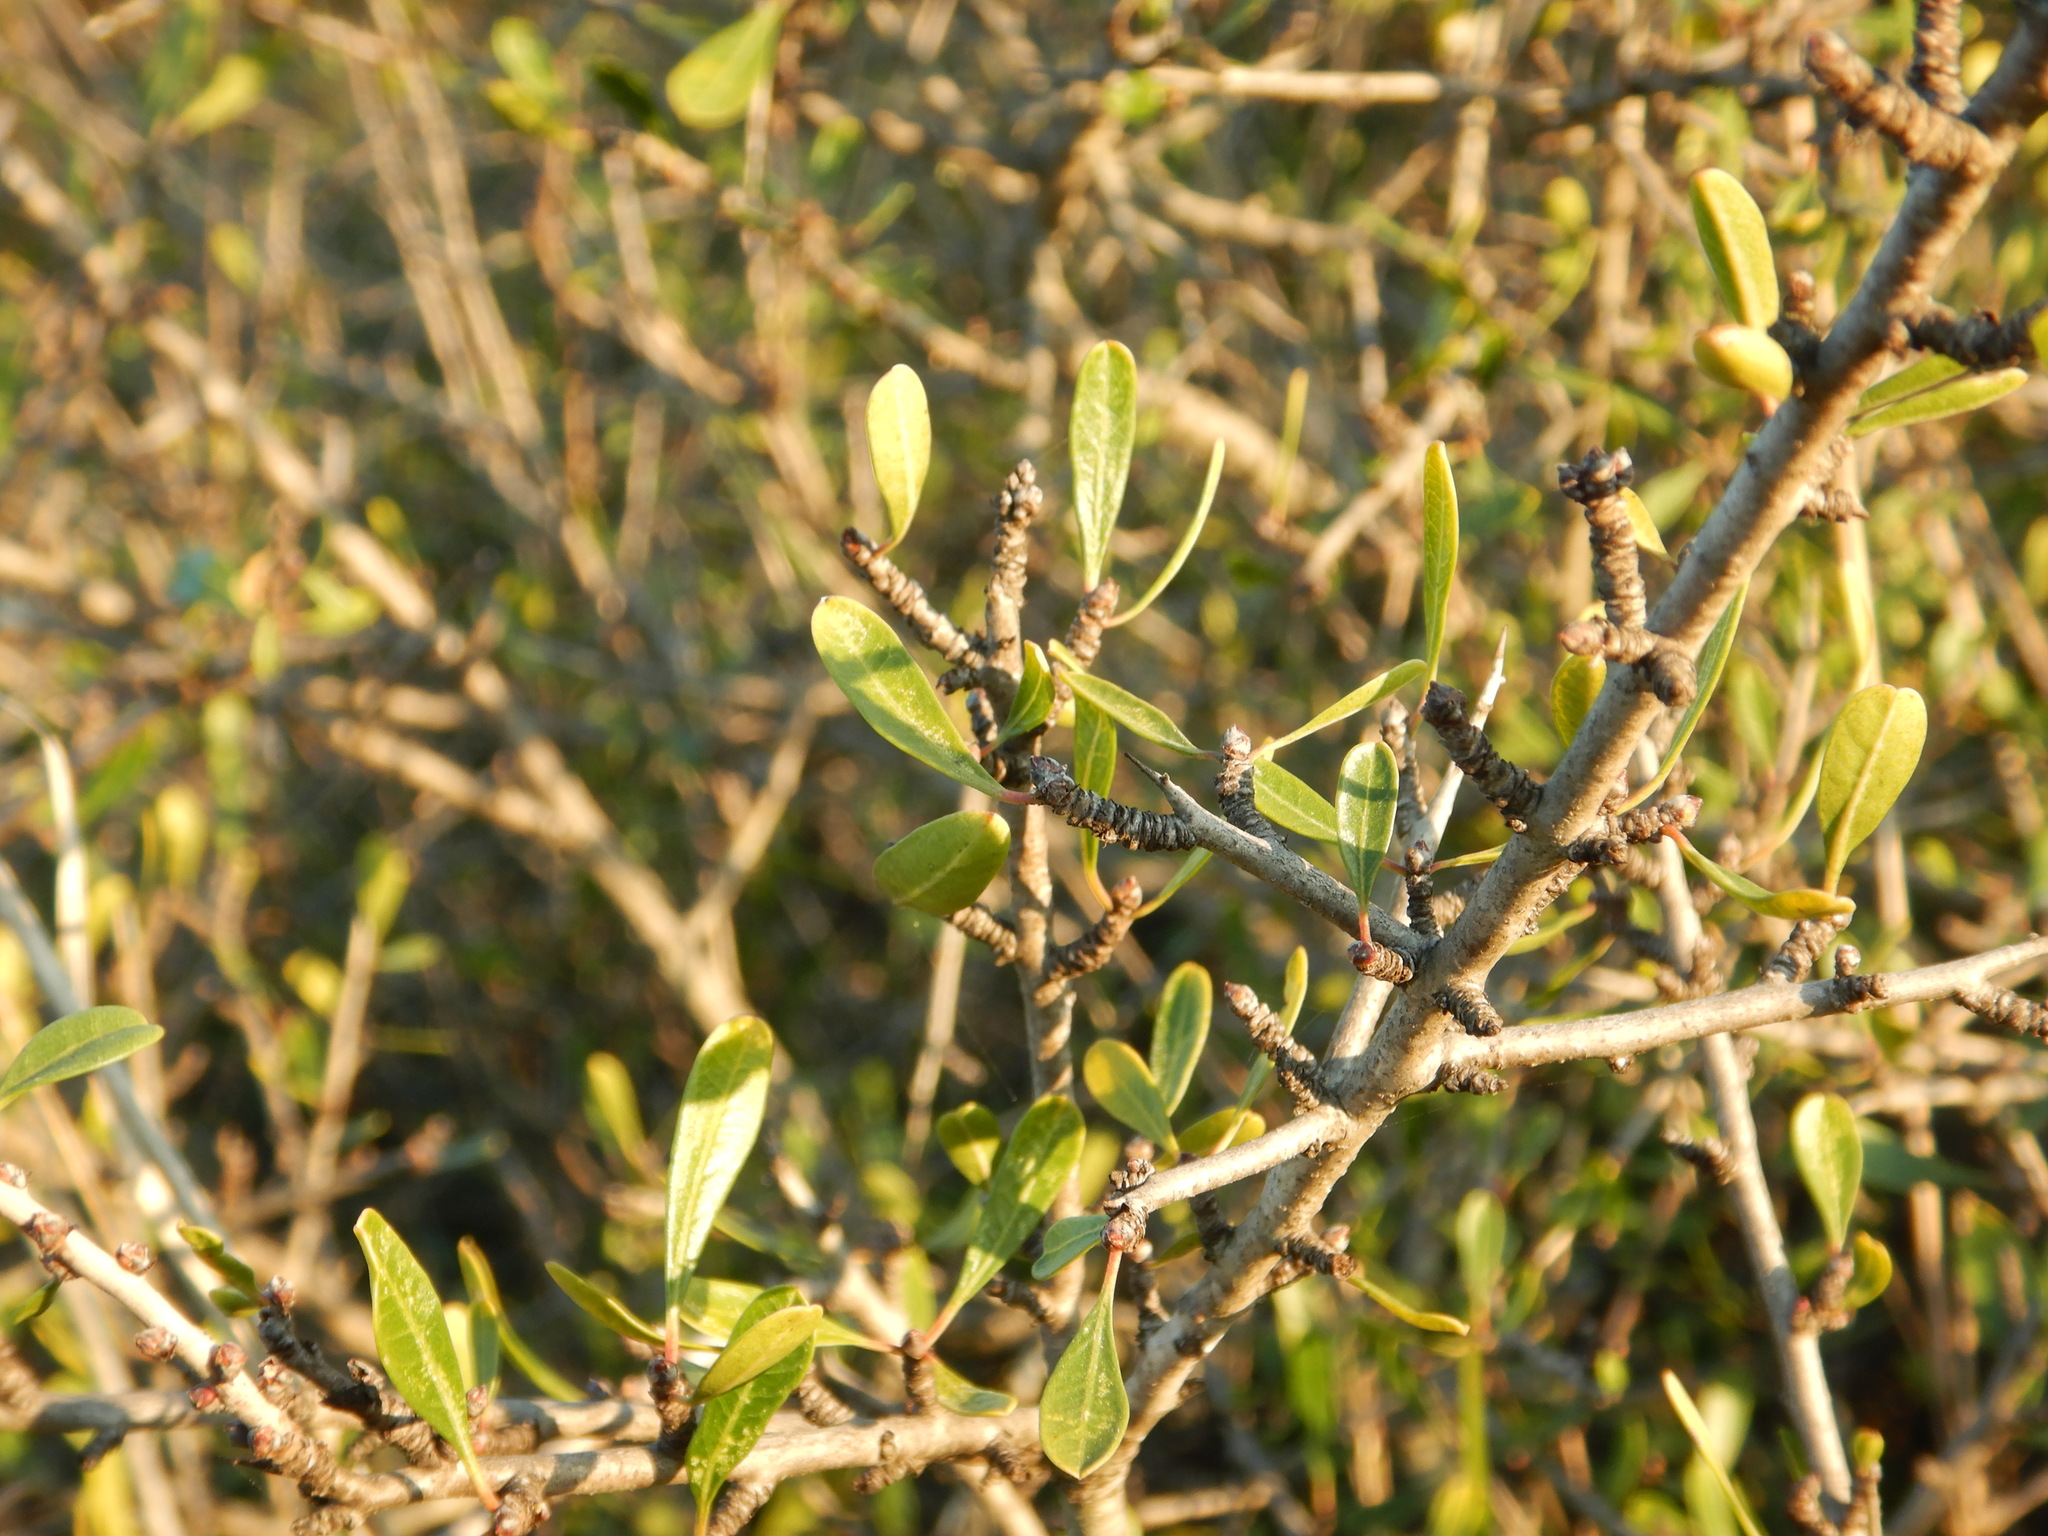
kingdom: Plantae
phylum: Tracheophyta
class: Magnoliopsida
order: Rosales
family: Rhamnaceae
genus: Rhamnus
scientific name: Rhamnus oleoides
